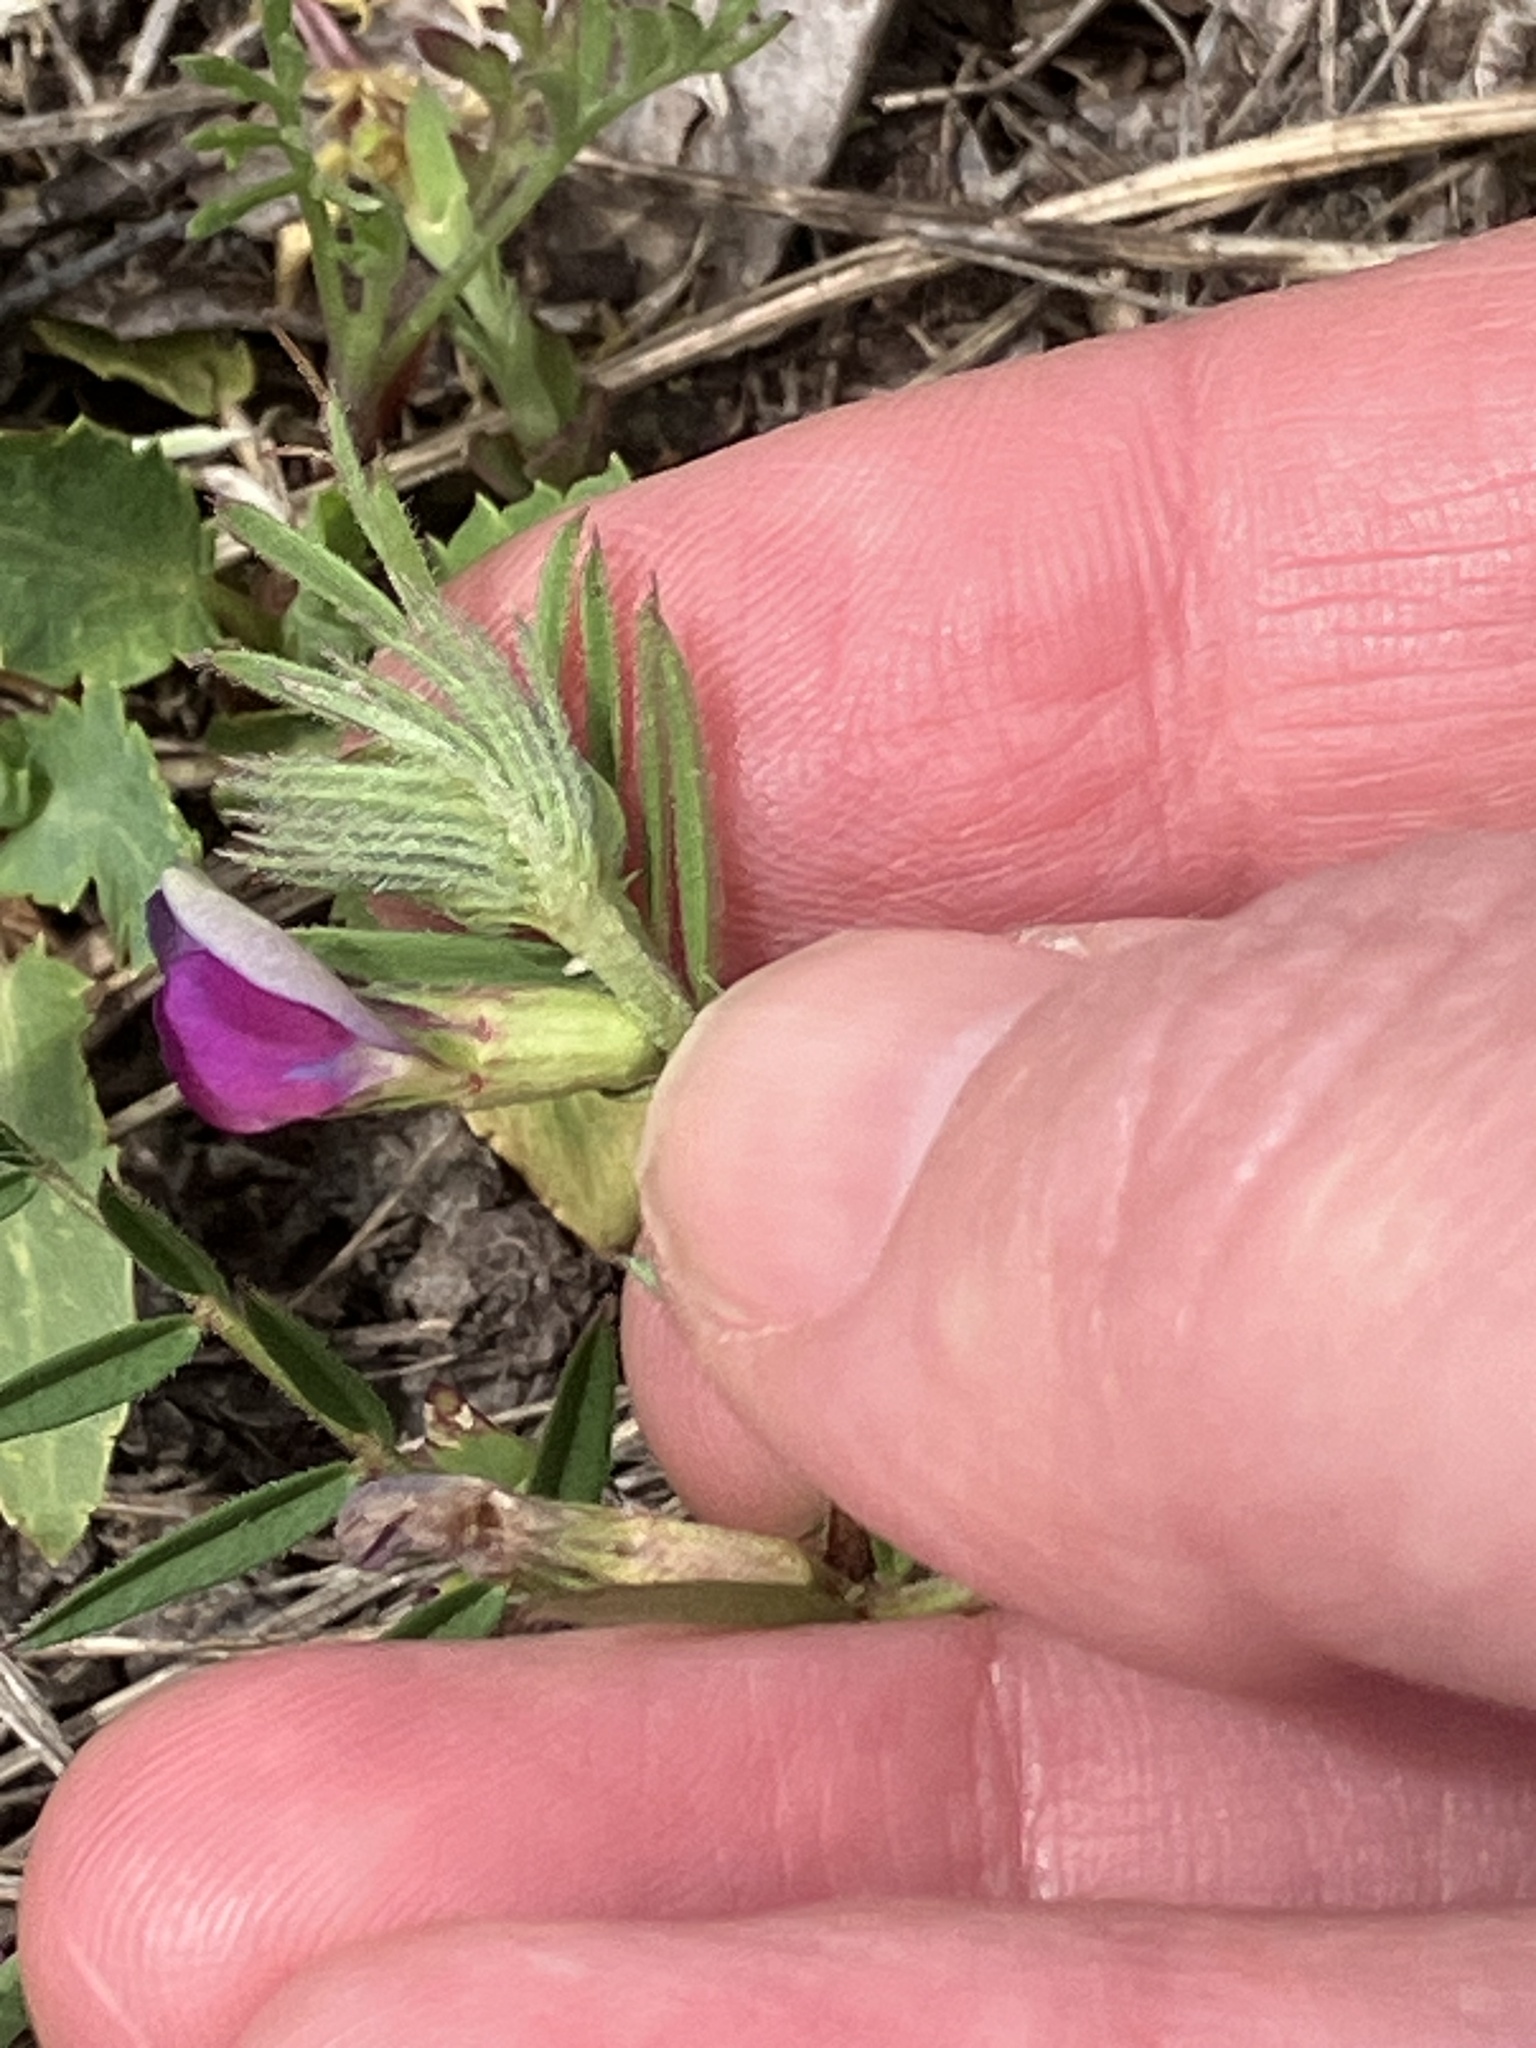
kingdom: Plantae
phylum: Tracheophyta
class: Magnoliopsida
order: Fabales
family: Fabaceae
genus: Vicia
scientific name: Vicia sativa
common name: Garden vetch
